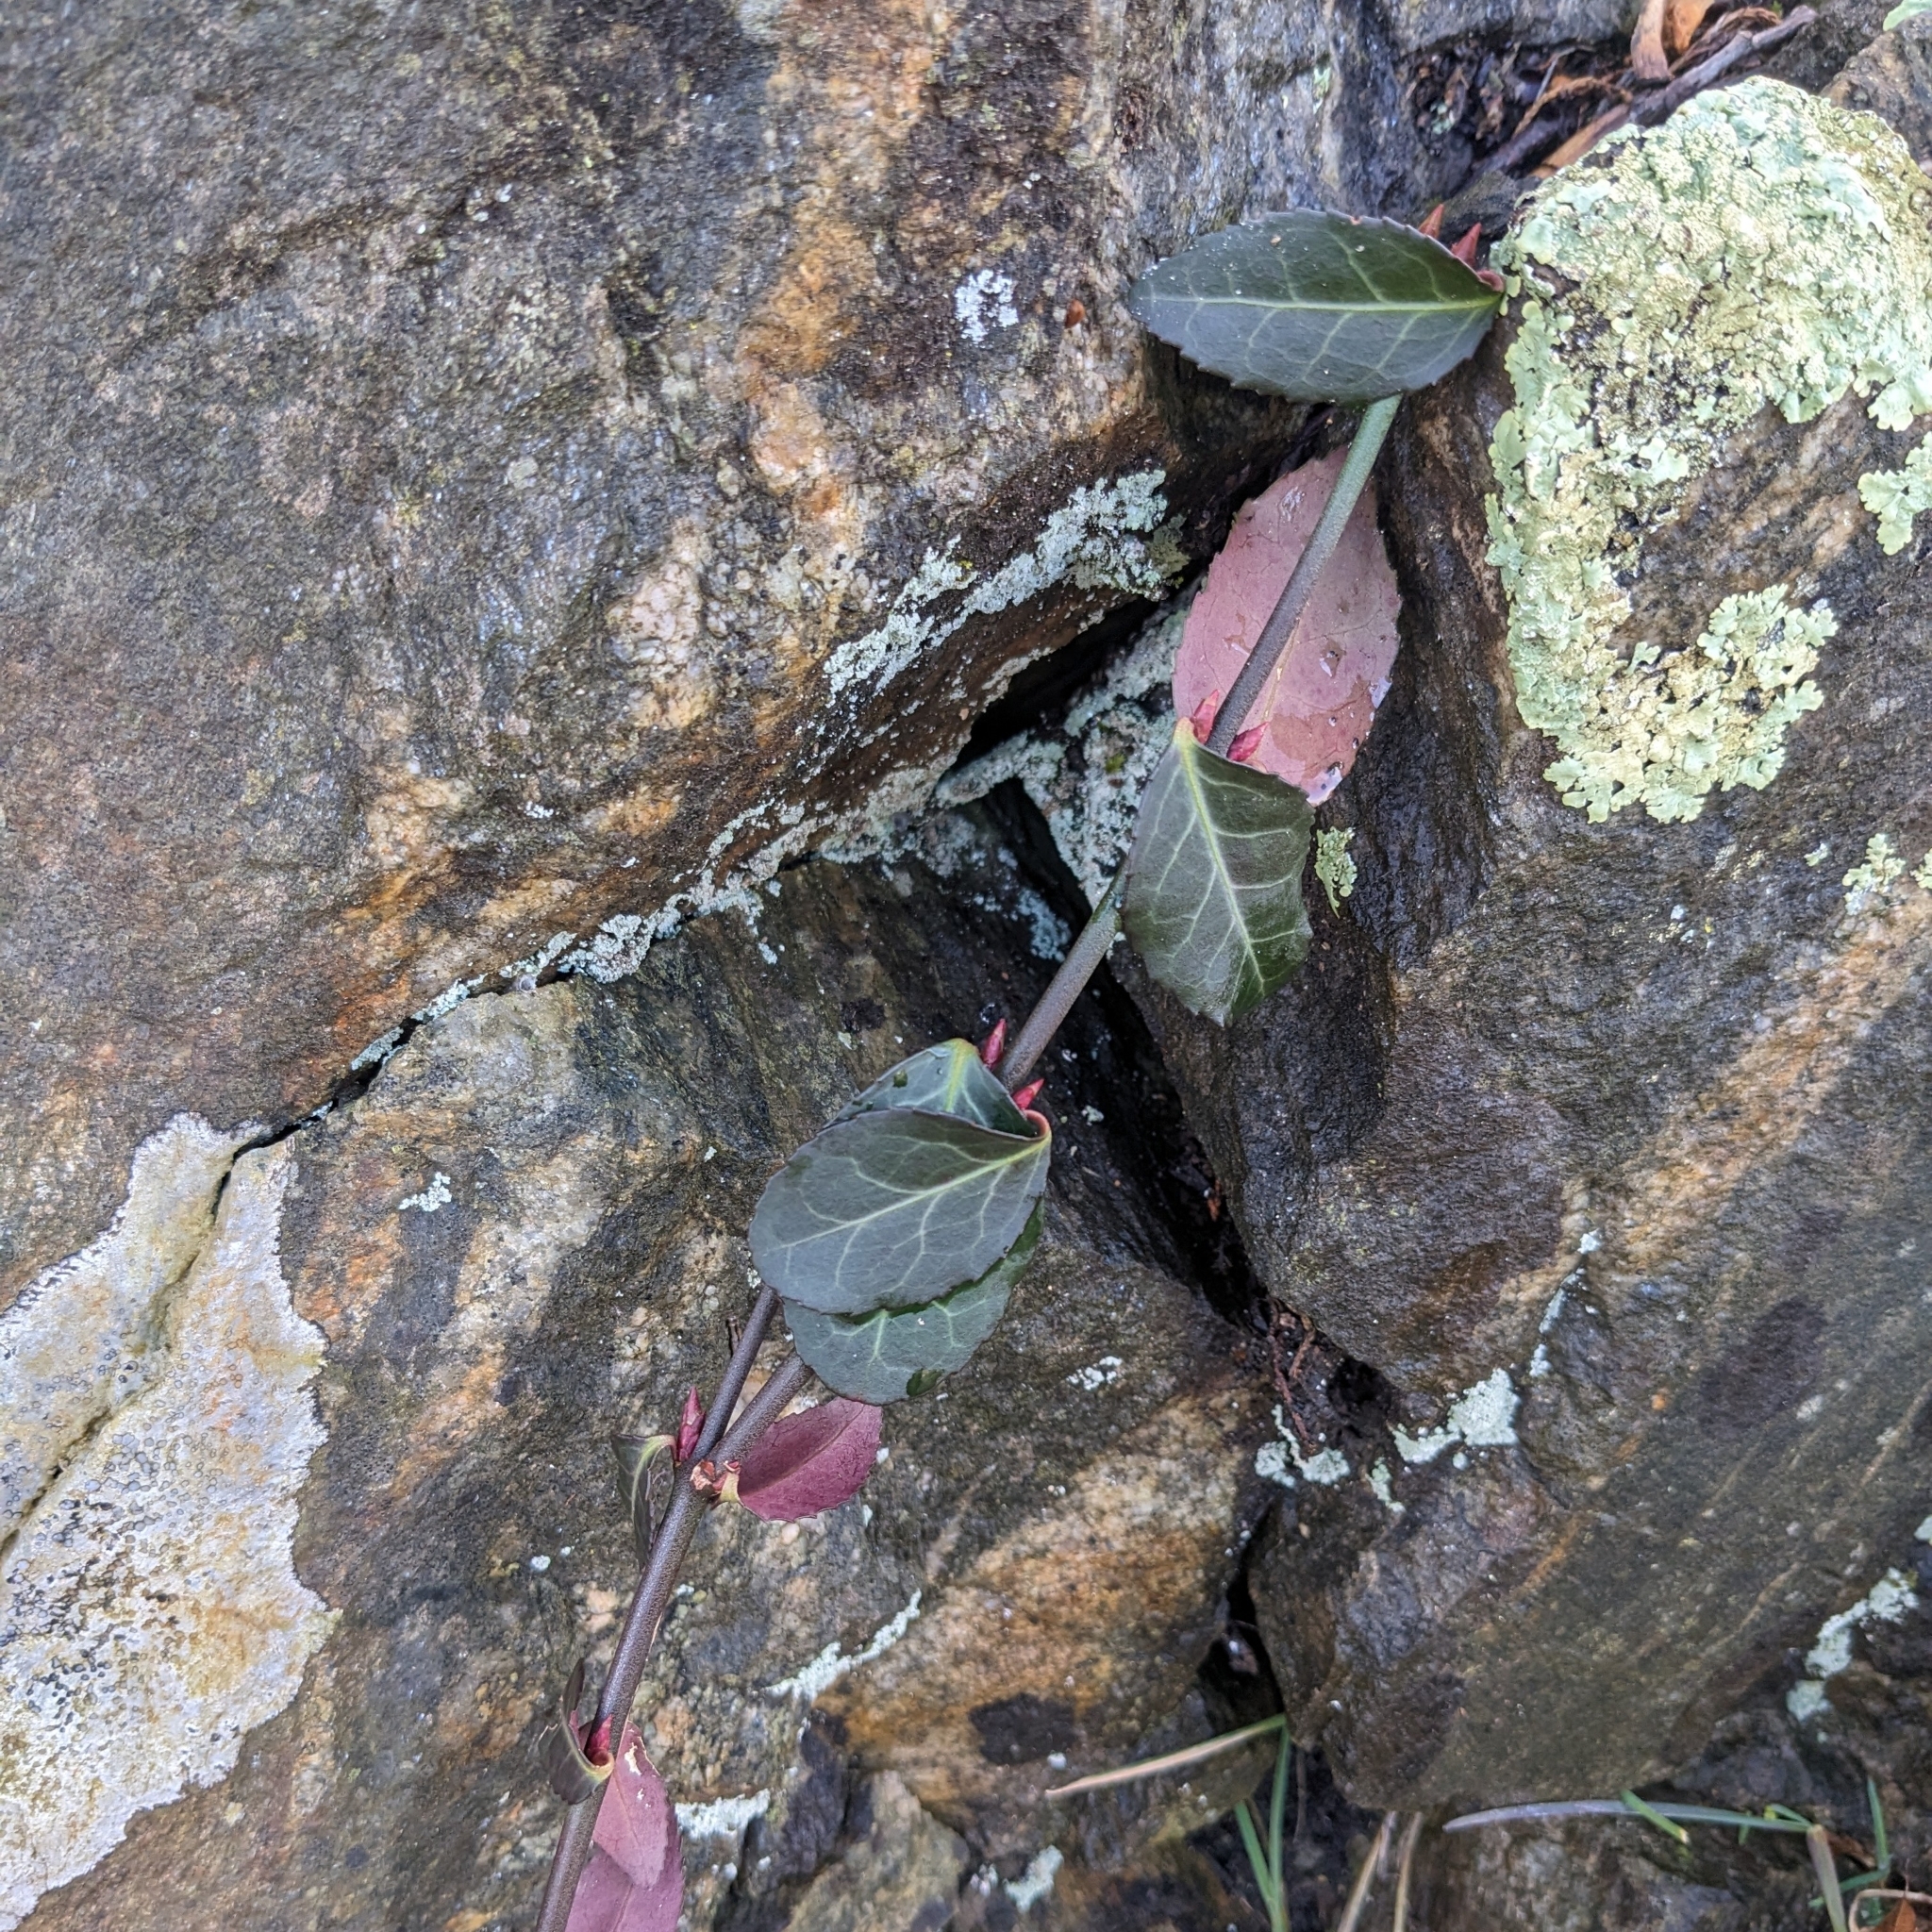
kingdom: Plantae
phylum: Tracheophyta
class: Magnoliopsida
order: Celastrales
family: Celastraceae
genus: Euonymus
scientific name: Euonymus fortunei
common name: Climbing euonymus
